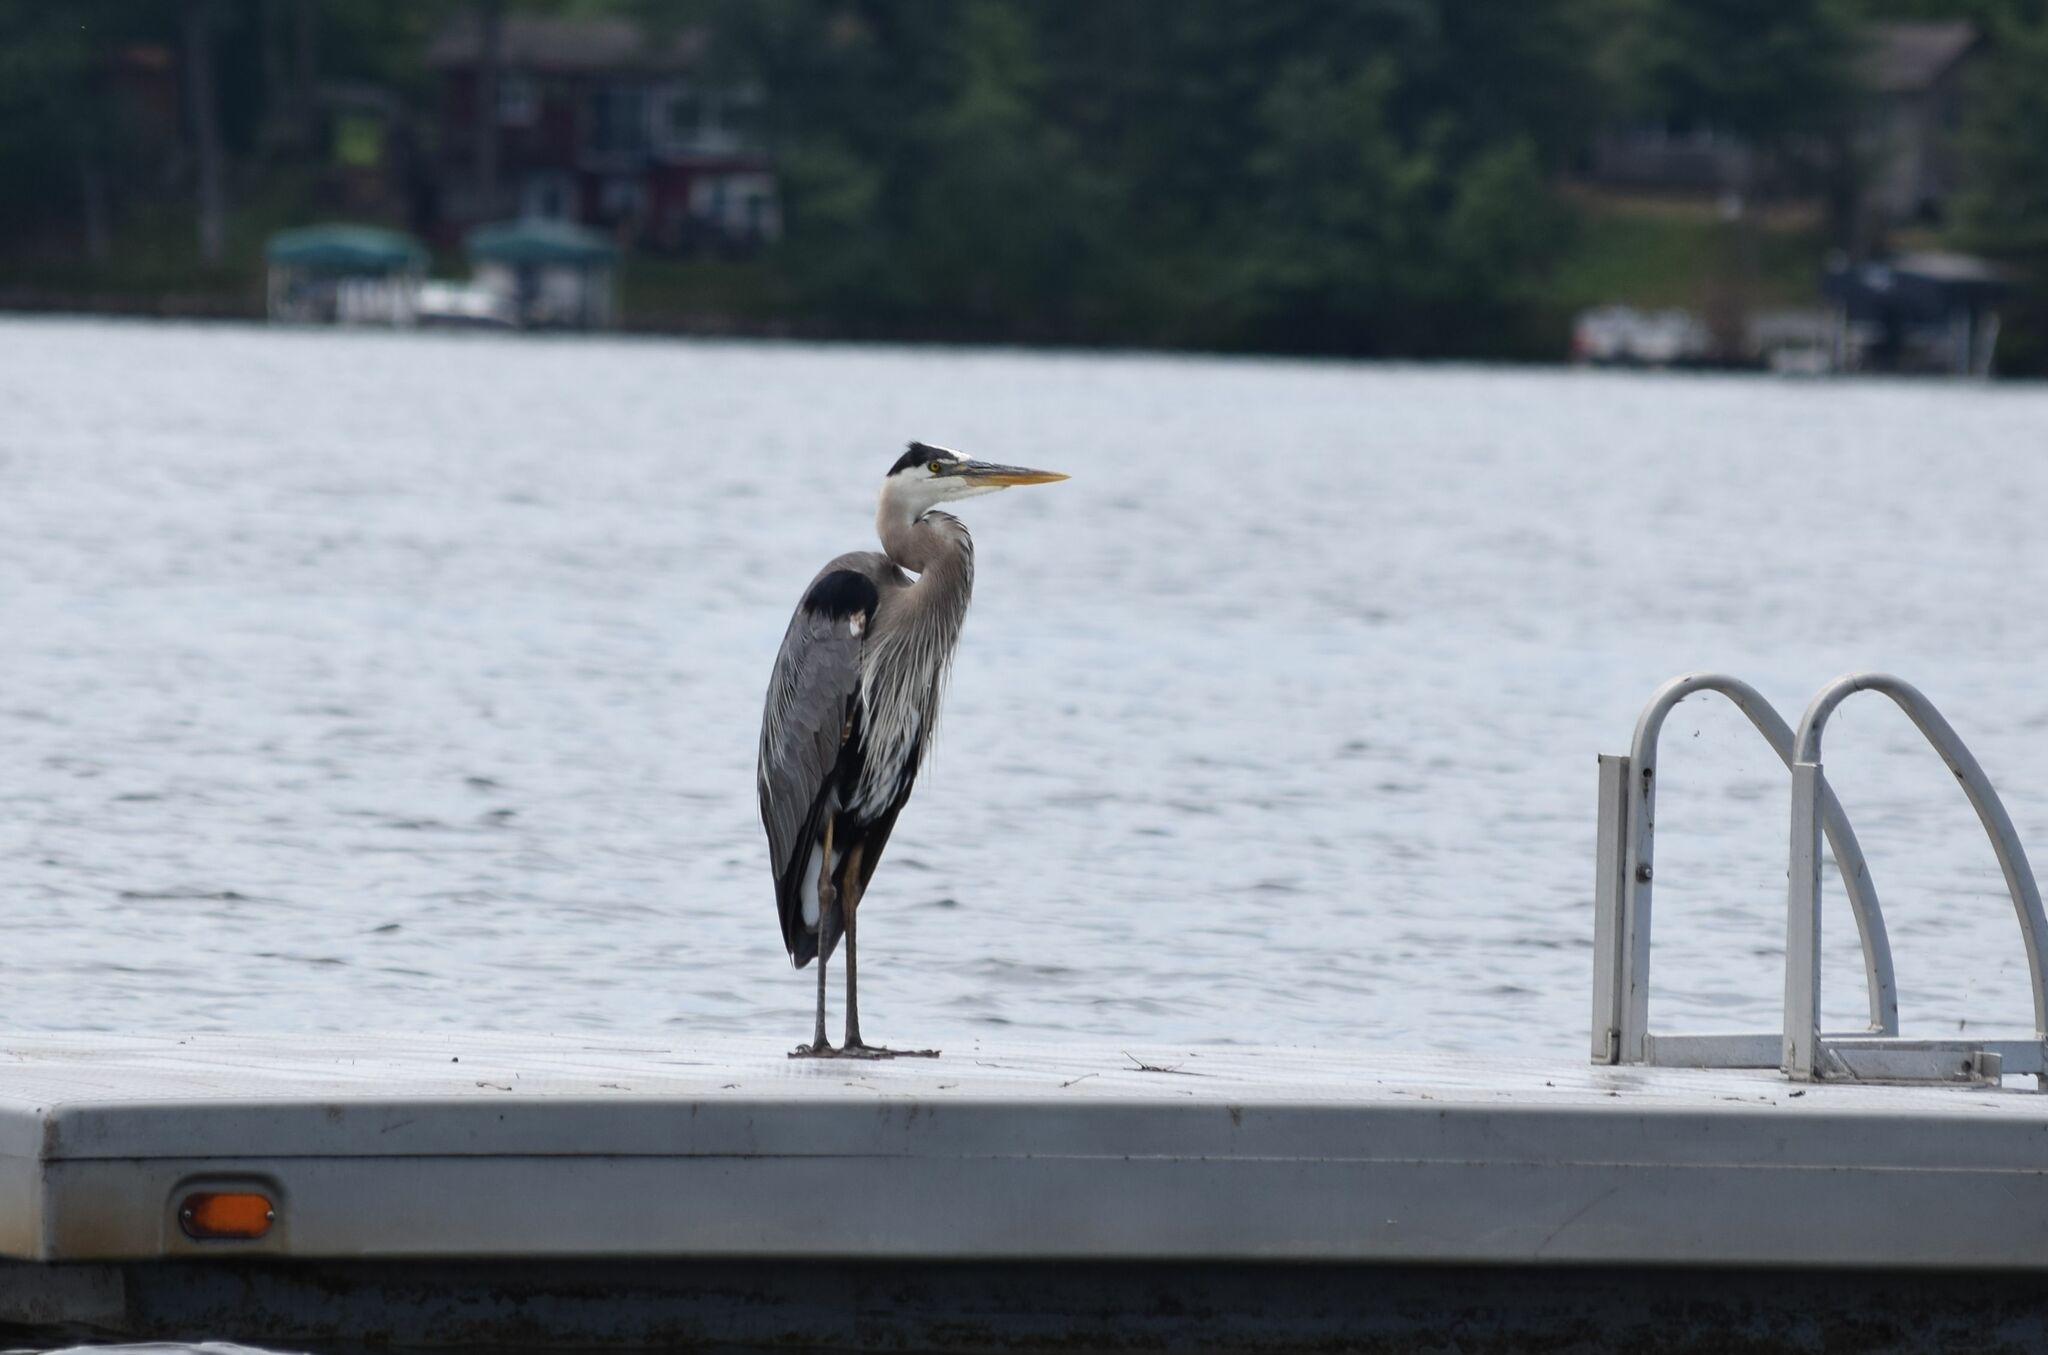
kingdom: Animalia
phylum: Chordata
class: Aves
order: Pelecaniformes
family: Ardeidae
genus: Ardea
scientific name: Ardea herodias
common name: Great blue heron
